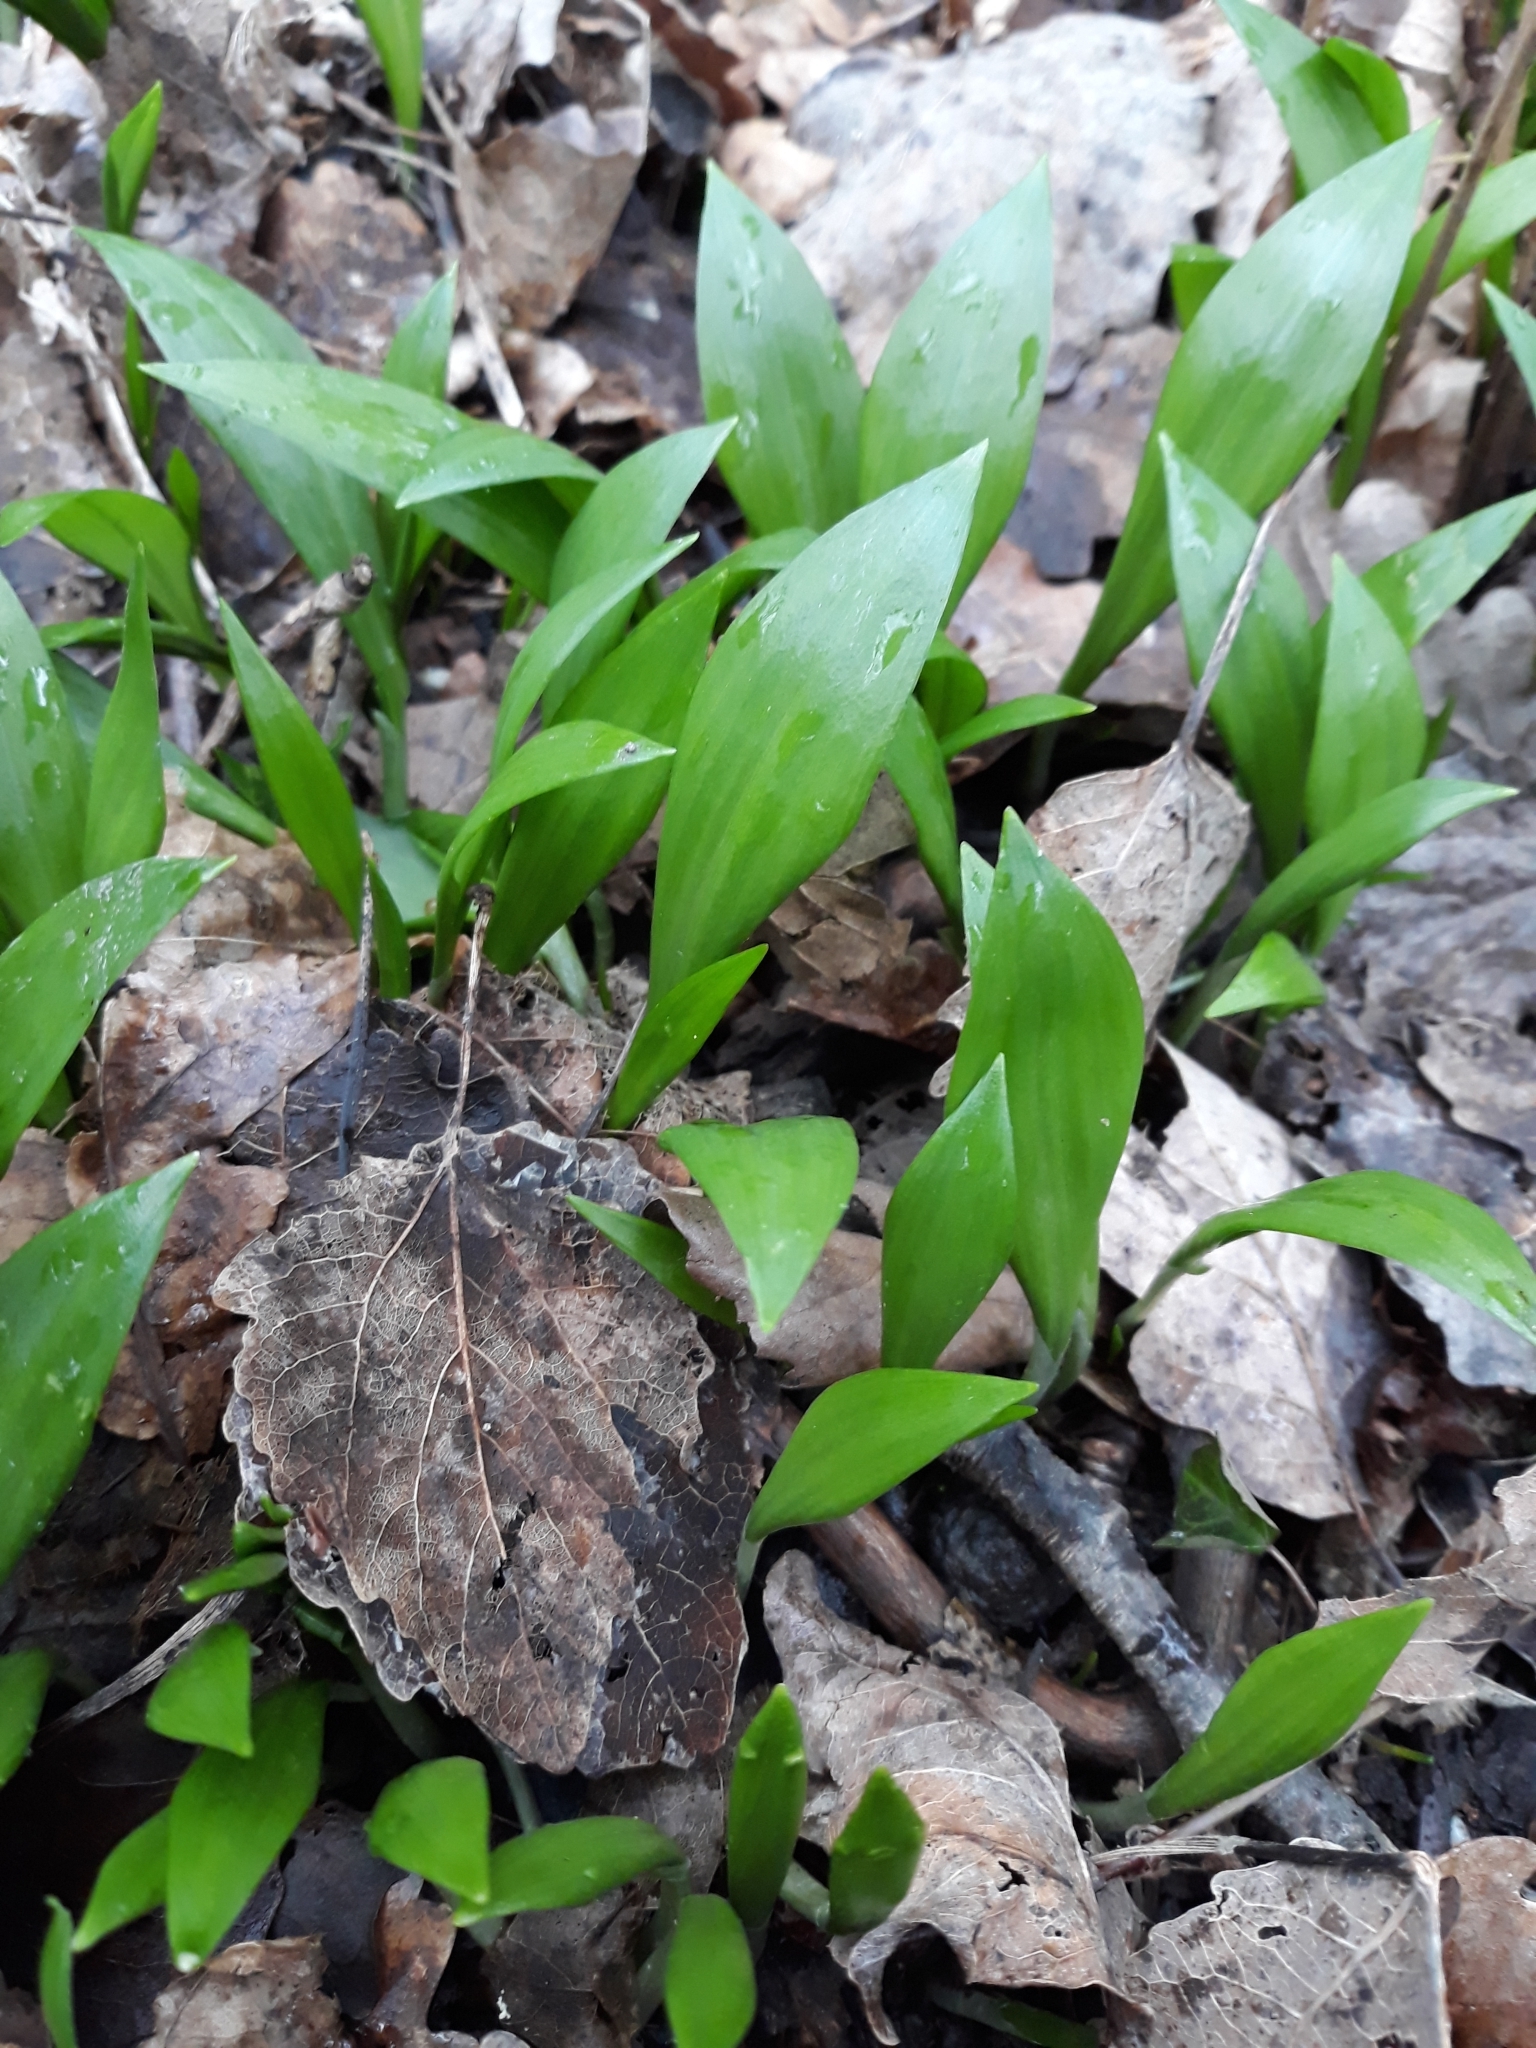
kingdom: Plantae
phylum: Tracheophyta
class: Liliopsida
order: Asparagales
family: Amaryllidaceae
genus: Allium
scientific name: Allium ursinum
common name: Ramsons
